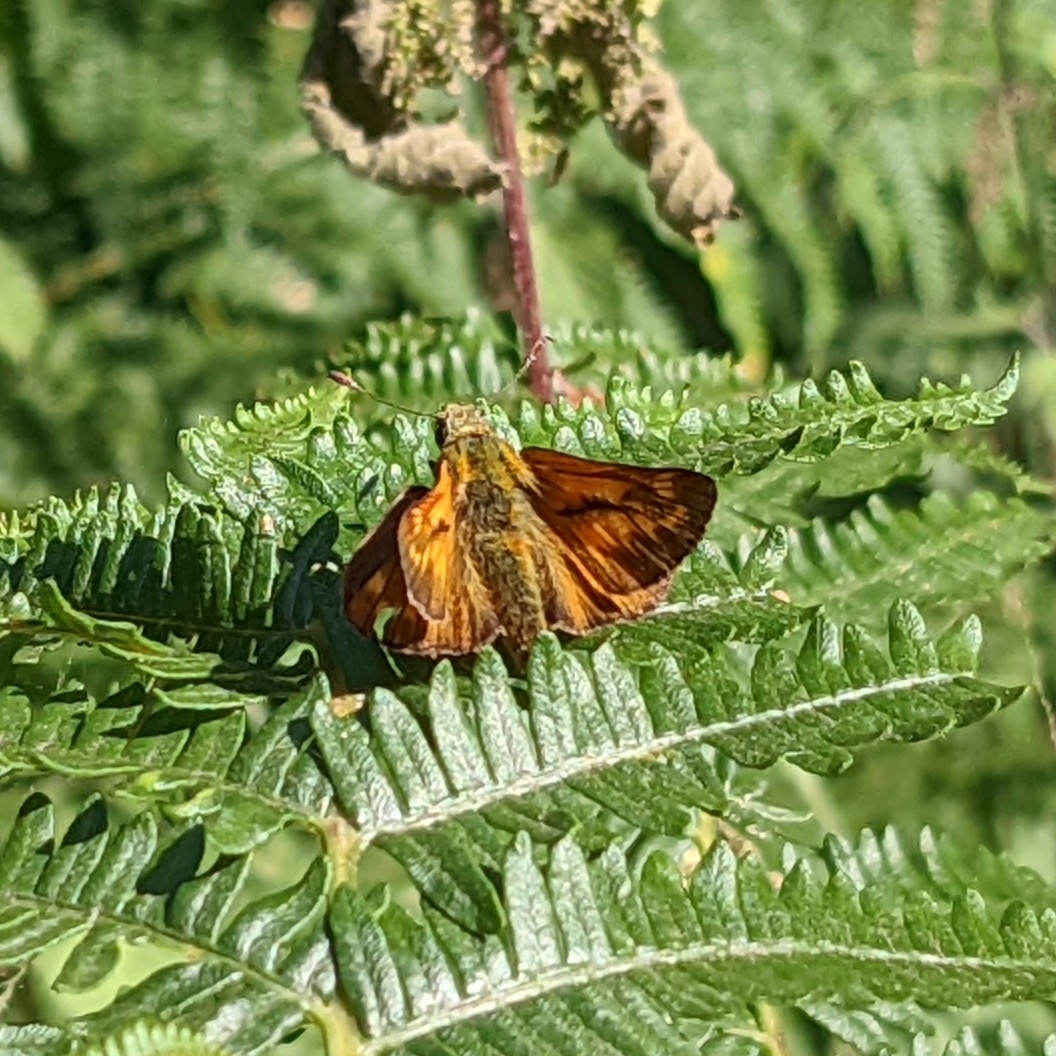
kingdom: Animalia
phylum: Arthropoda
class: Insecta
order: Lepidoptera
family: Hesperiidae
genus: Ochlodes
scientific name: Ochlodes venata
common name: Large skipper
